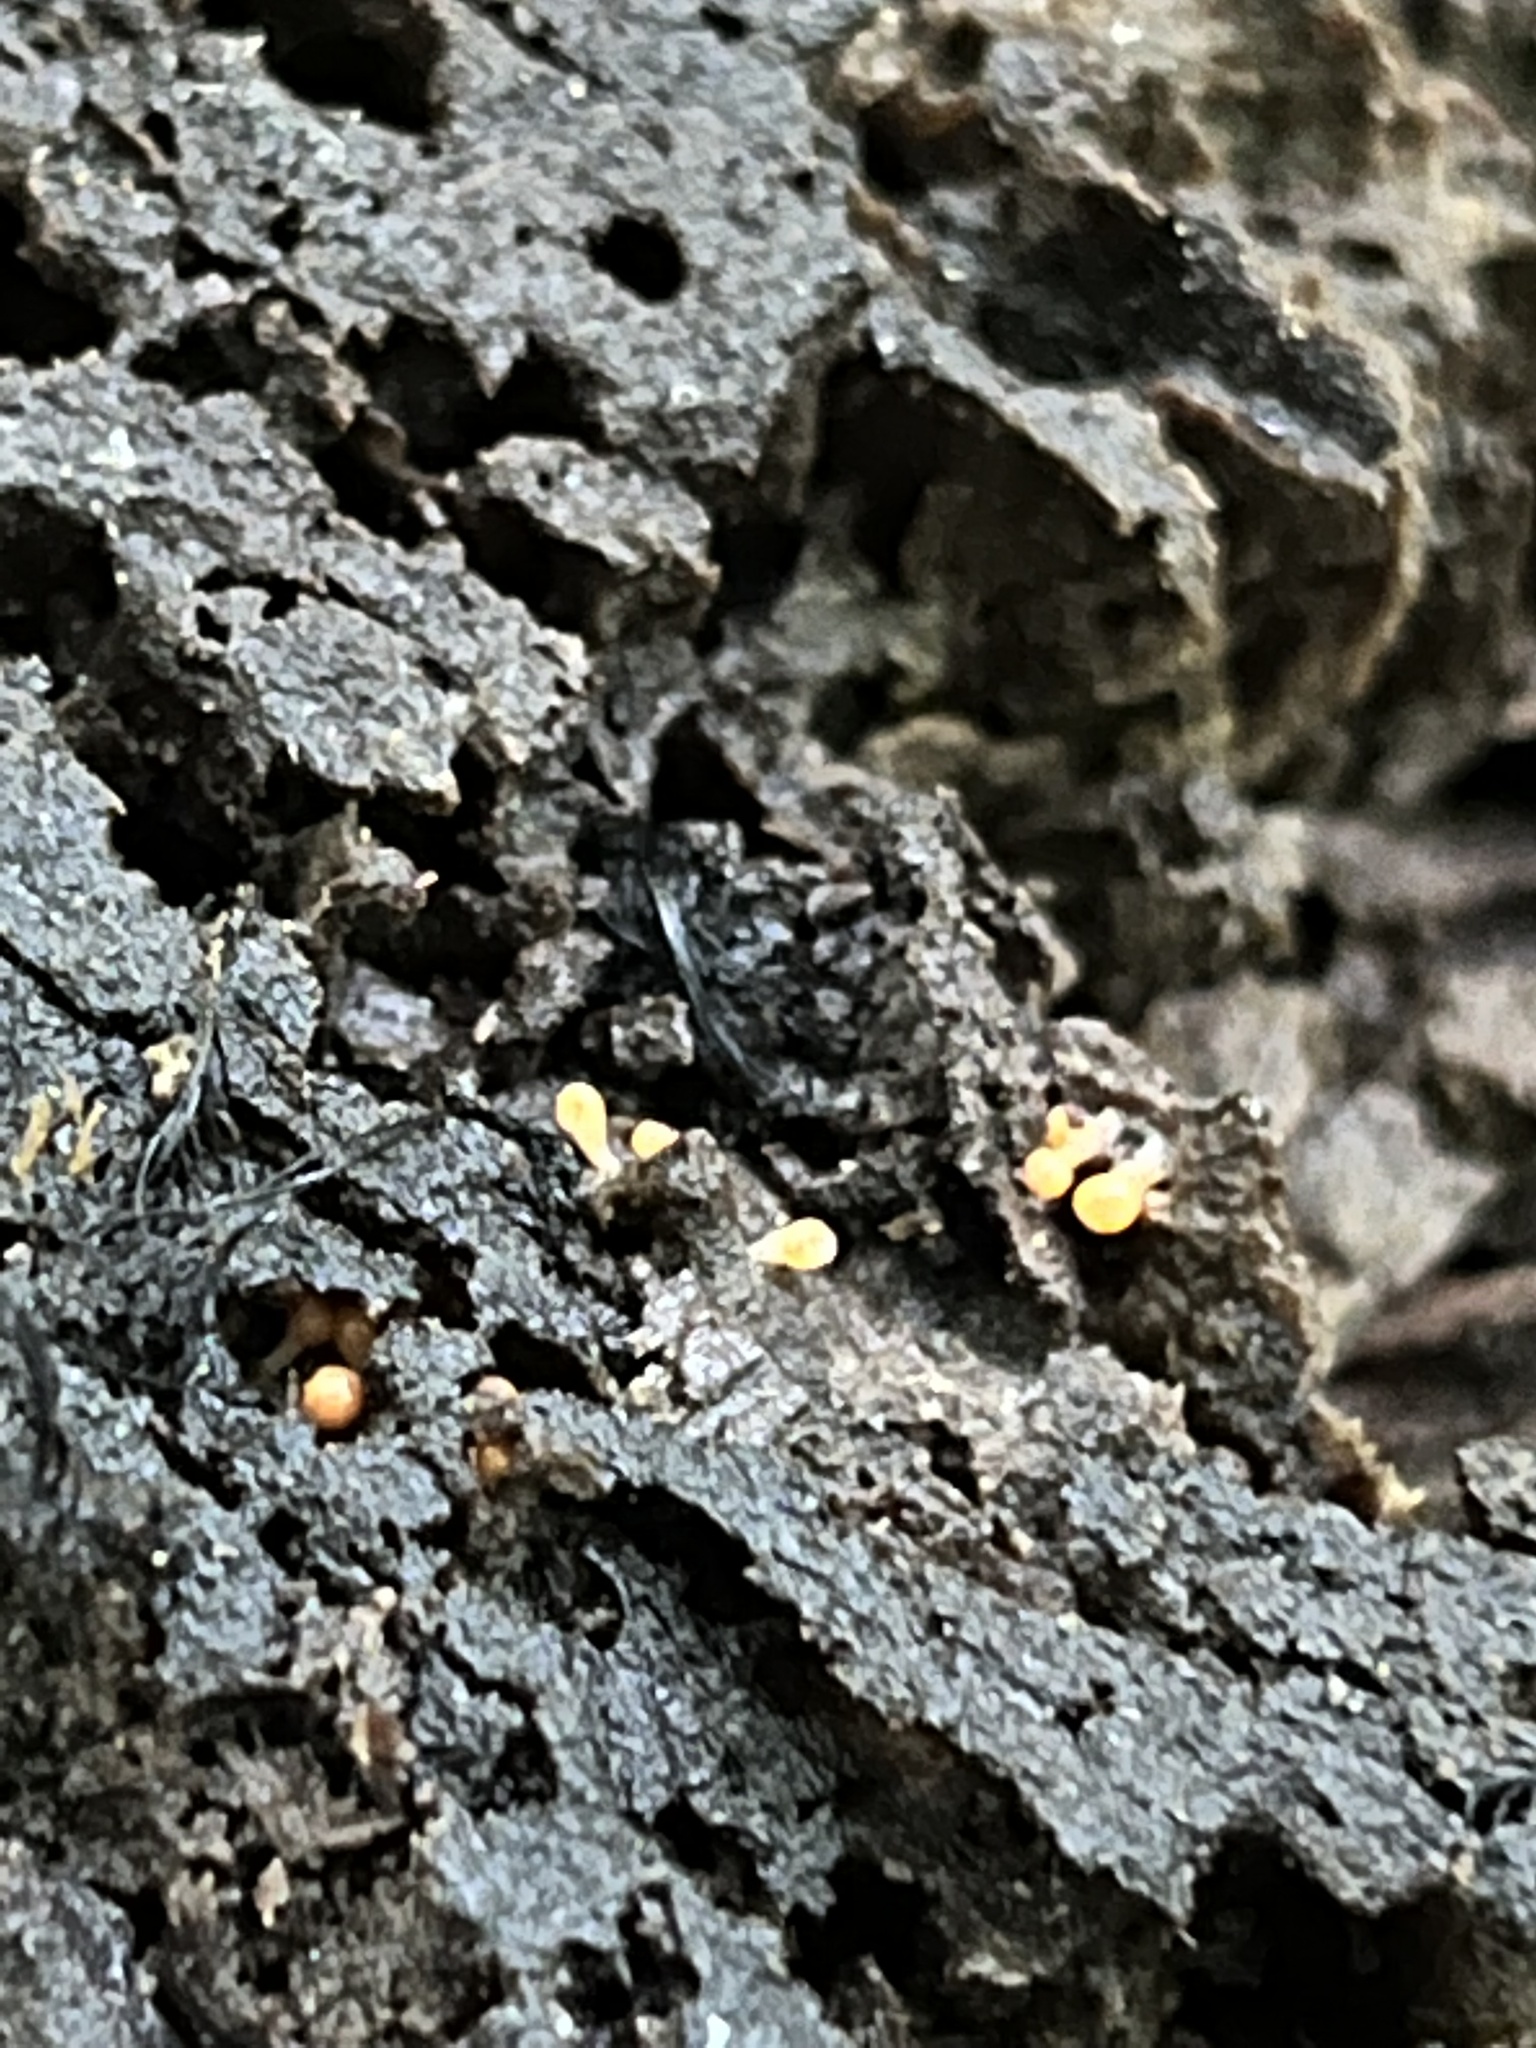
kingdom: Protozoa
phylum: Mycetozoa
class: Myxomycetes
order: Trichiales
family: Arcyriaceae
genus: Hemitrichia
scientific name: Hemitrichia decipiens
